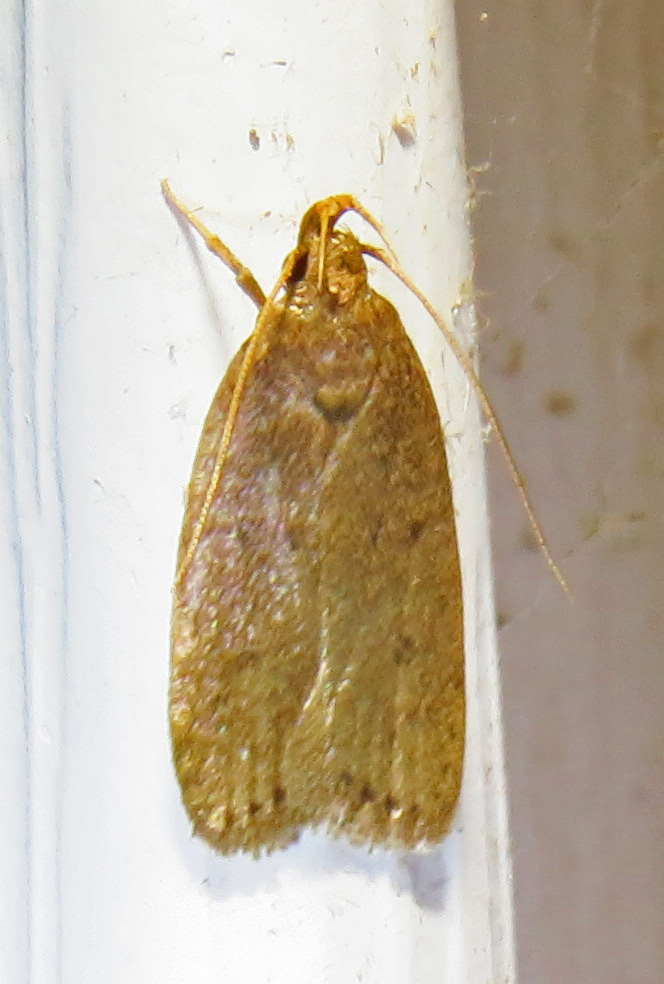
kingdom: Animalia
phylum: Arthropoda
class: Insecta
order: Lepidoptera
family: Autostichidae
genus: Autosticha
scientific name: Autosticha kyotensis
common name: Kyoto moth
